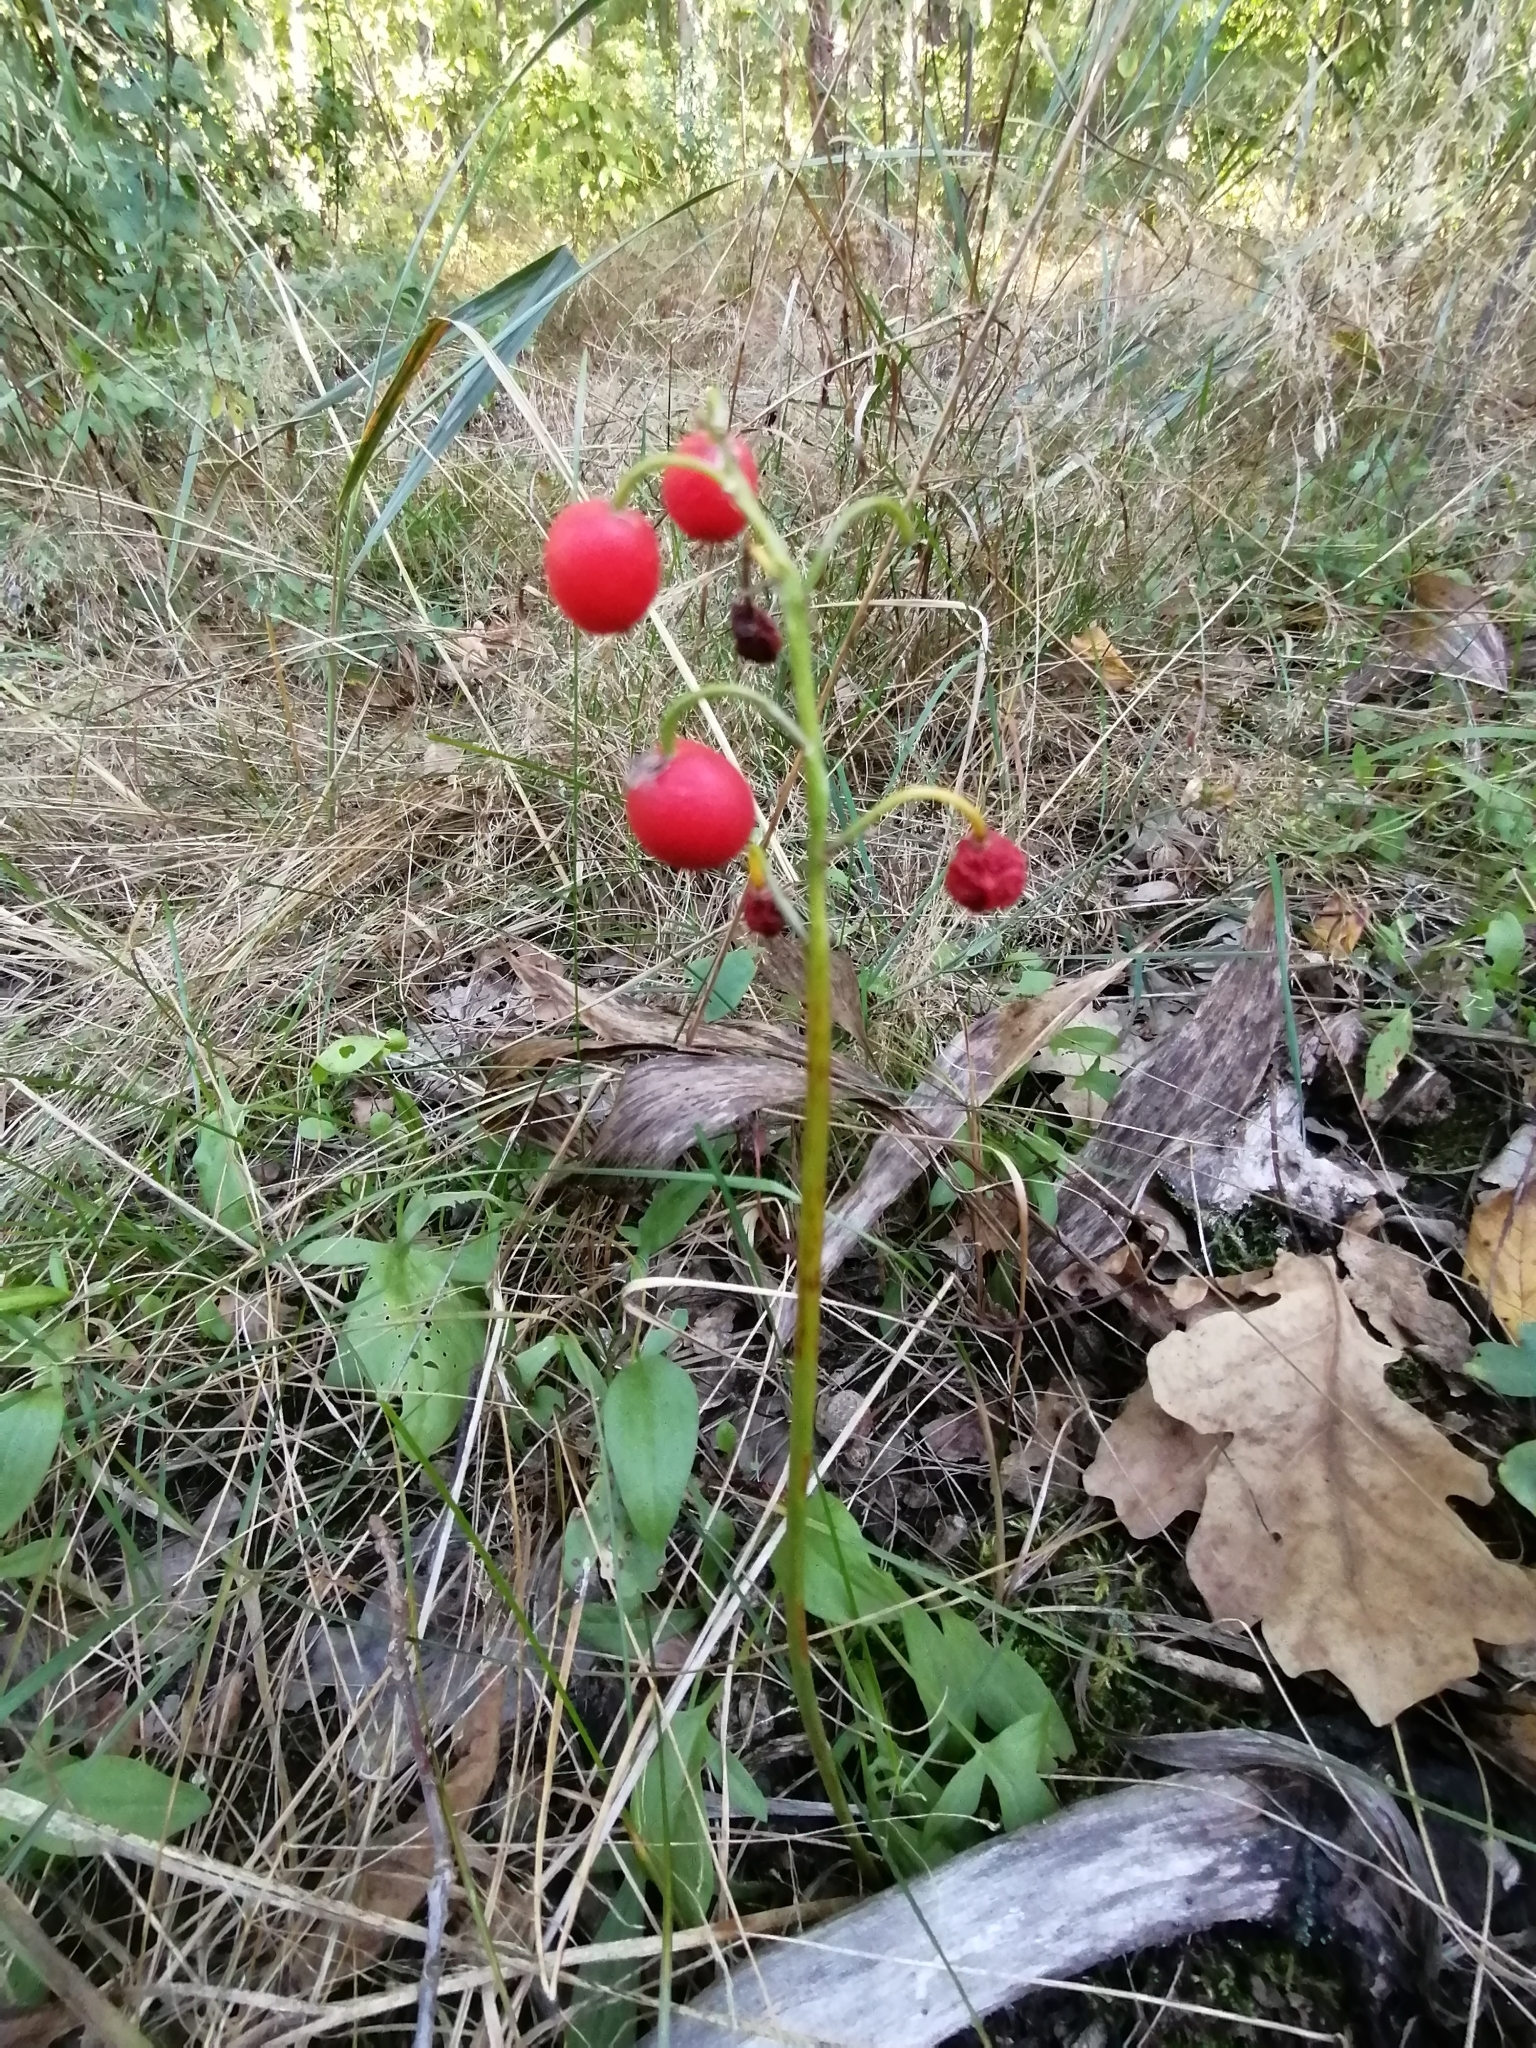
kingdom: Plantae
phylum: Tracheophyta
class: Liliopsida
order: Asparagales
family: Asparagaceae
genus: Convallaria
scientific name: Convallaria majalis
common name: Lily-of-the-valley
